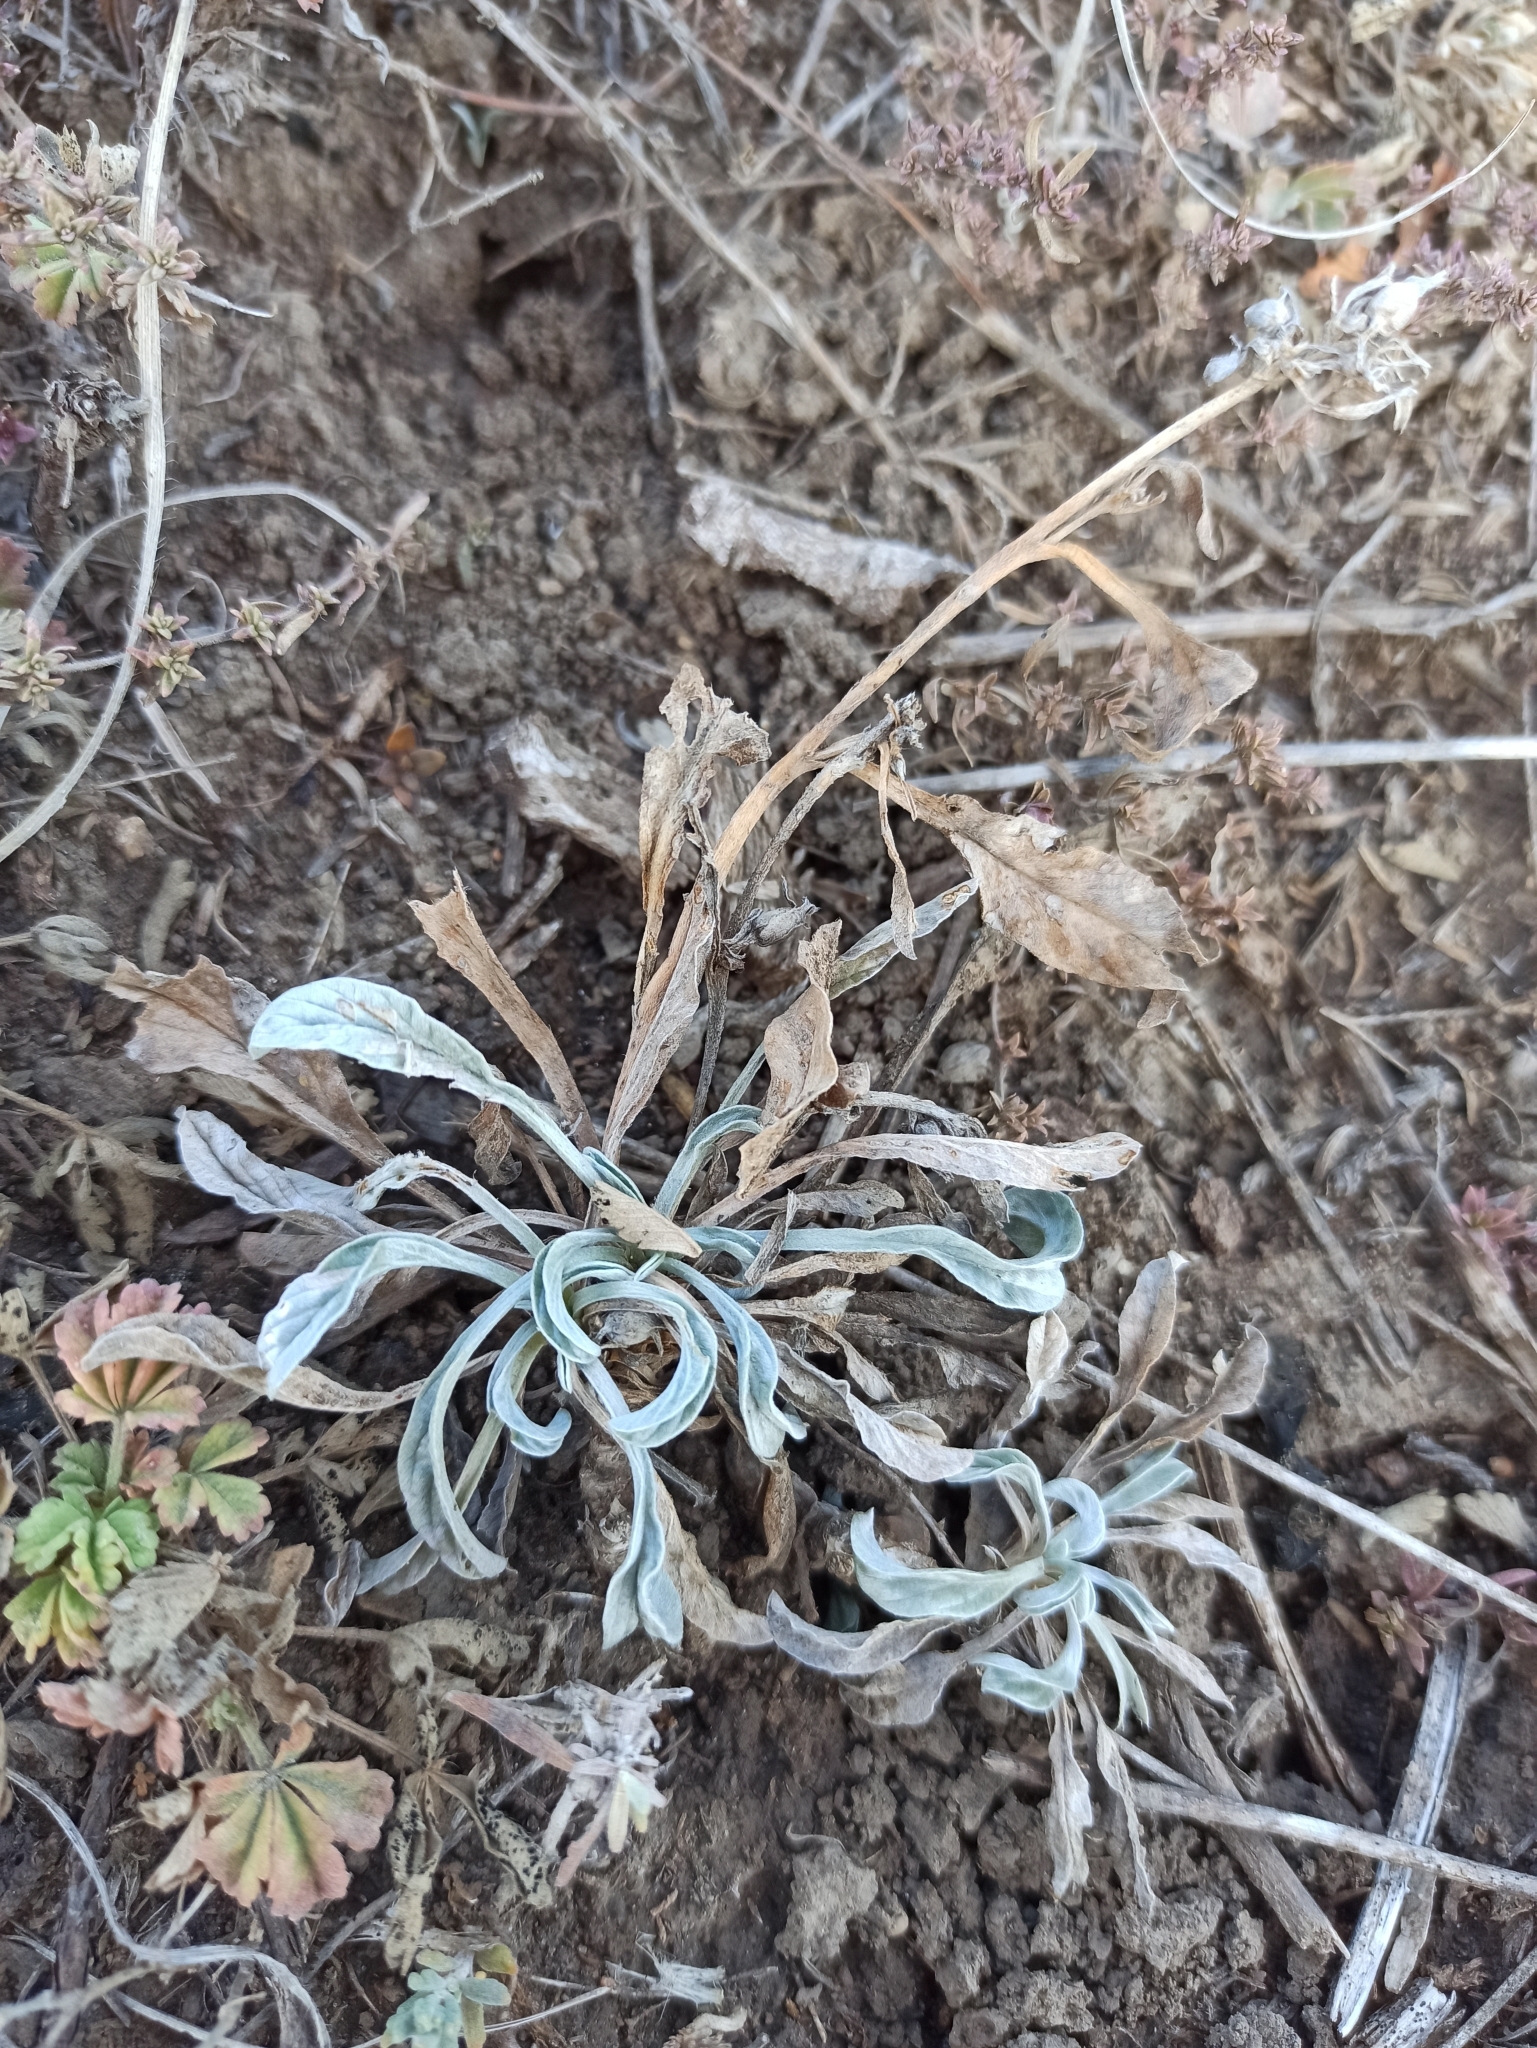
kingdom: Plantae
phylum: Tracheophyta
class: Magnoliopsida
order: Solanales
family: Convolvulaceae
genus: Convolvulus
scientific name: Convolvulus lineatus
